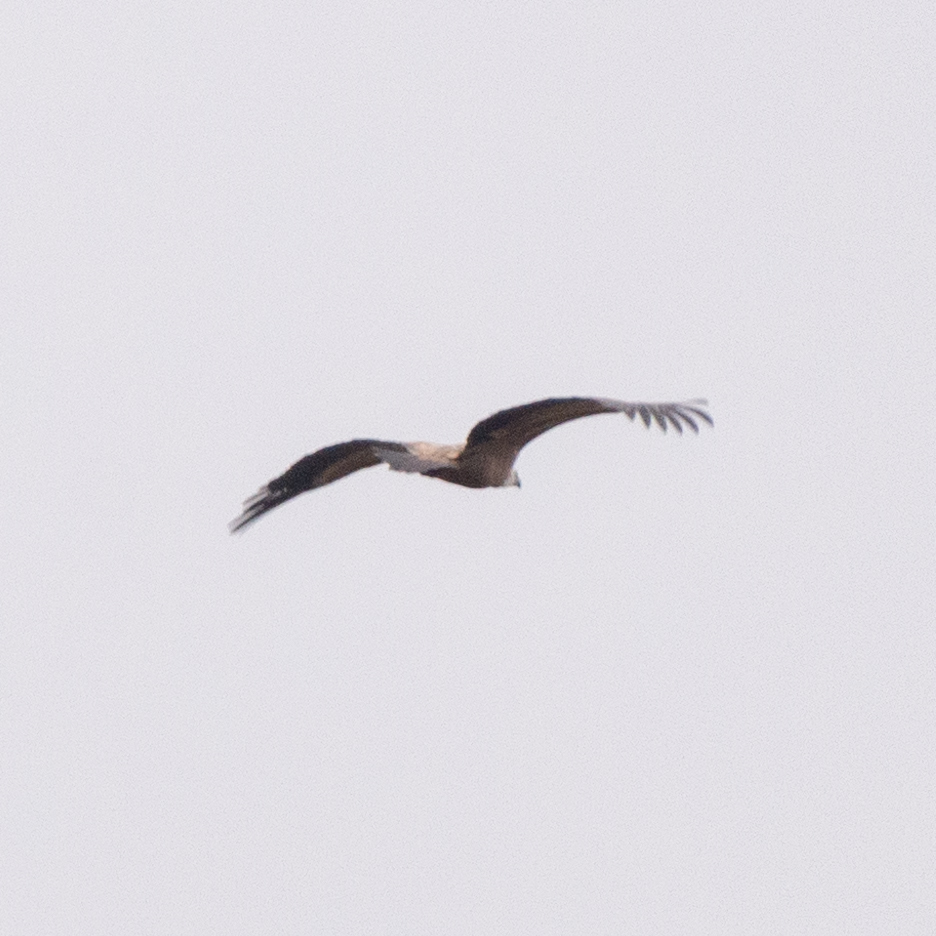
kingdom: Animalia
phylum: Chordata
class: Aves
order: Accipitriformes
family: Accipitridae
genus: Gyps
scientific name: Gyps fulvus
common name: Griffon vulture
